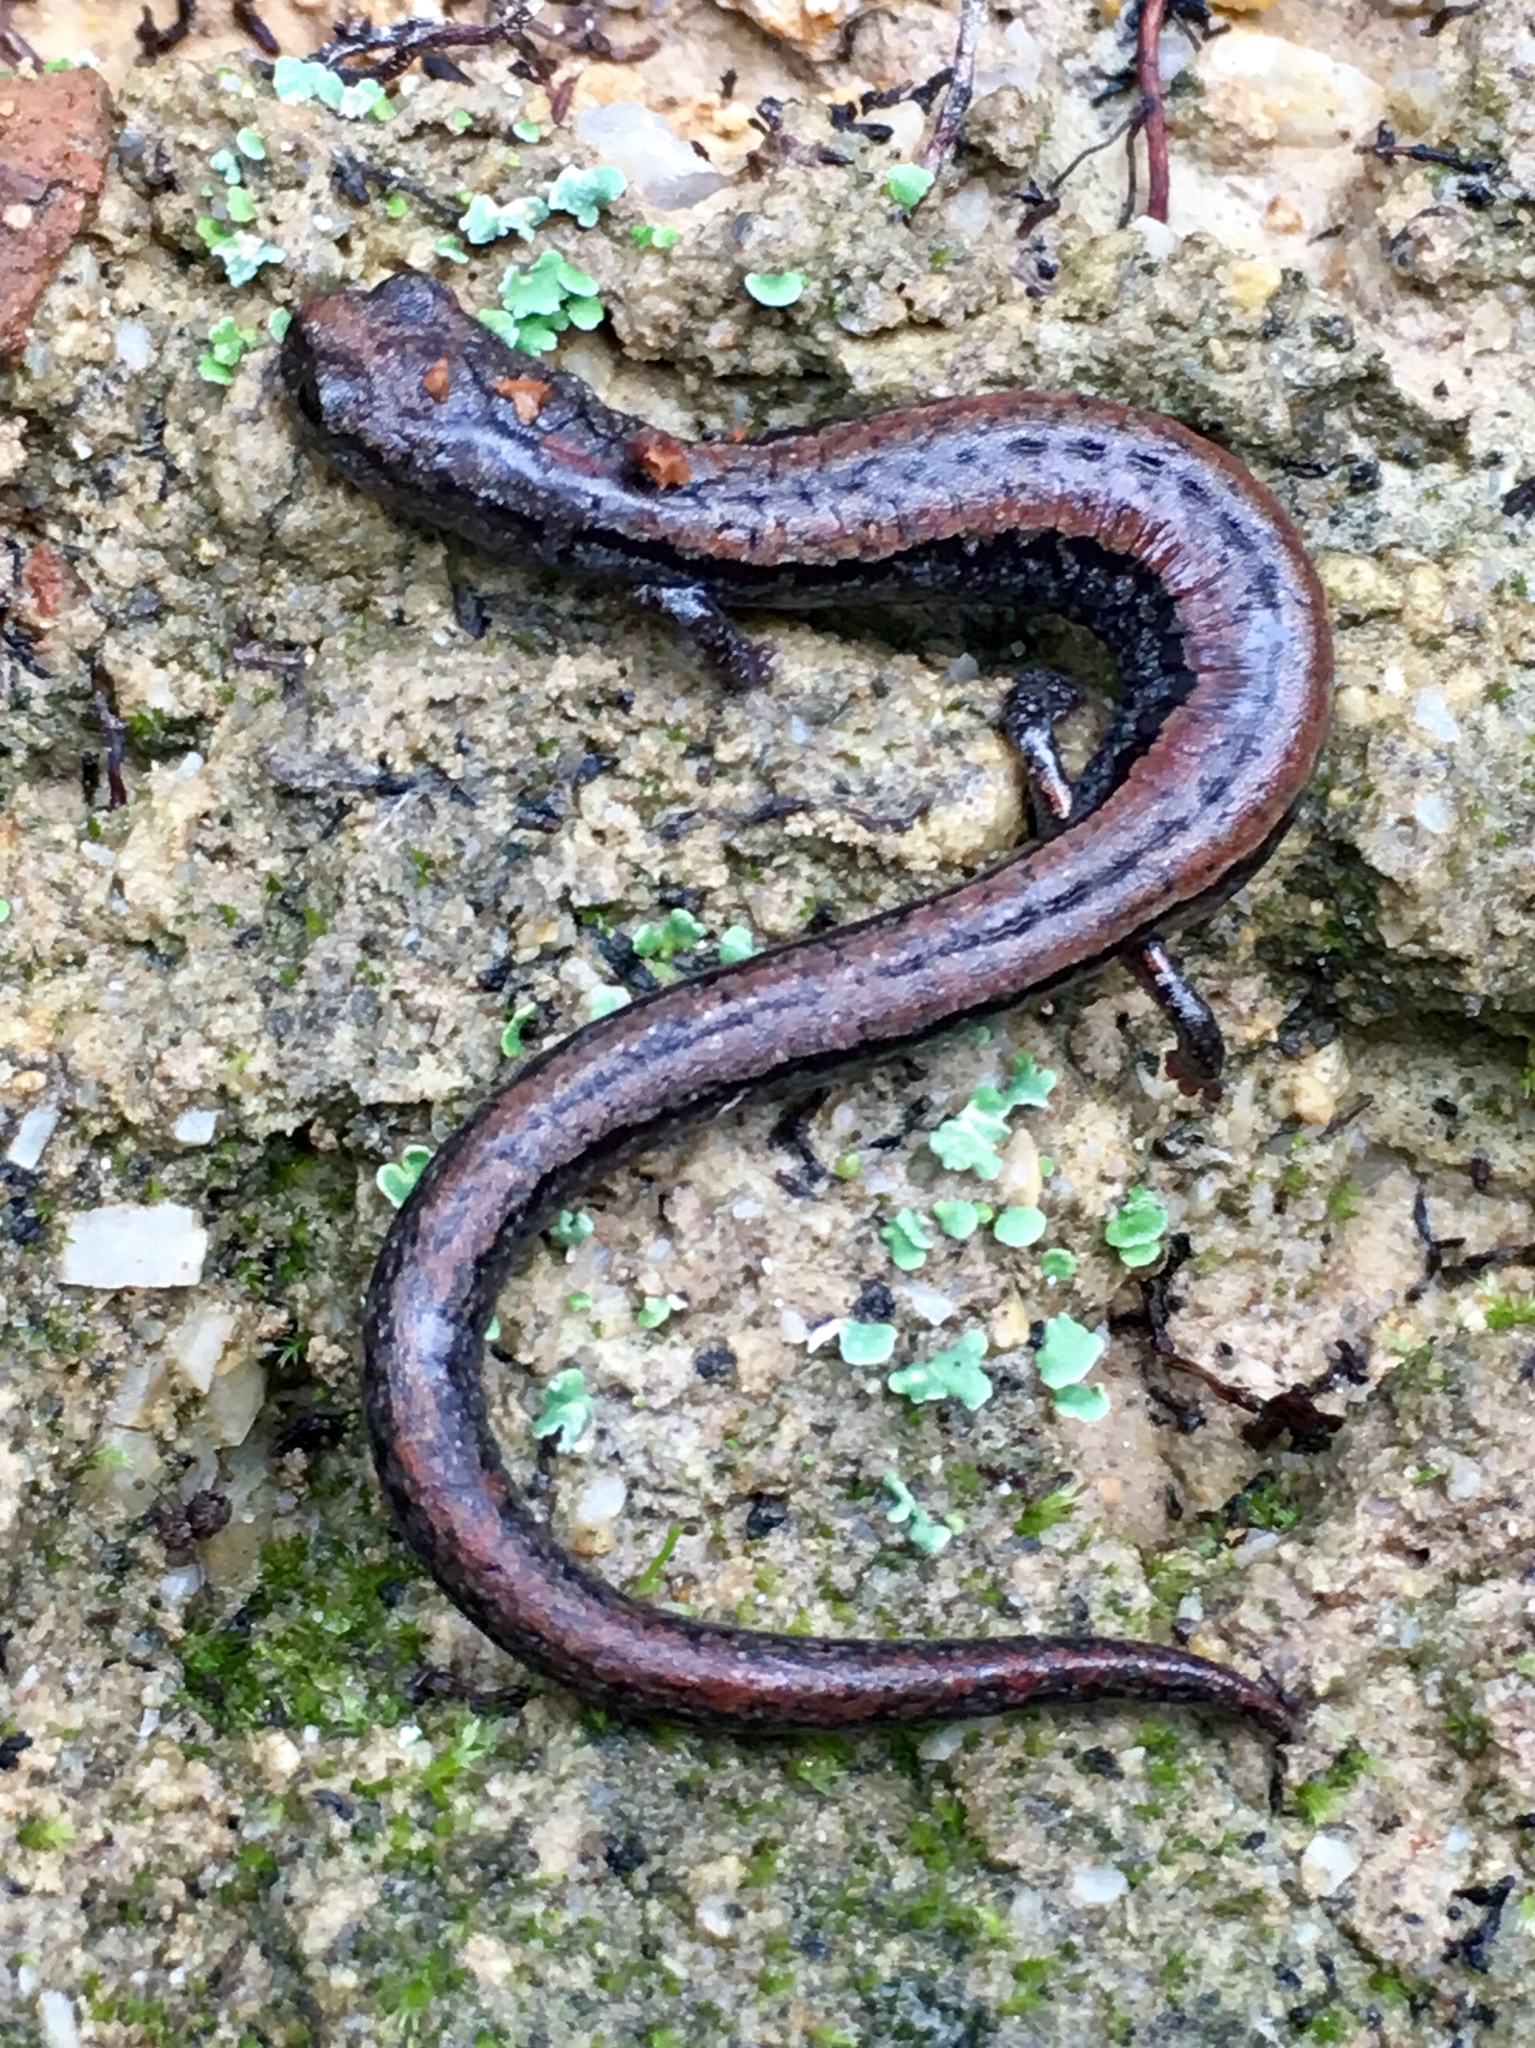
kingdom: Animalia
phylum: Chordata
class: Amphibia
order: Caudata
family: Plethodontidae
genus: Batrachoseps
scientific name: Batrachoseps luciae
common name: Santa lucia mountains slender salamander
